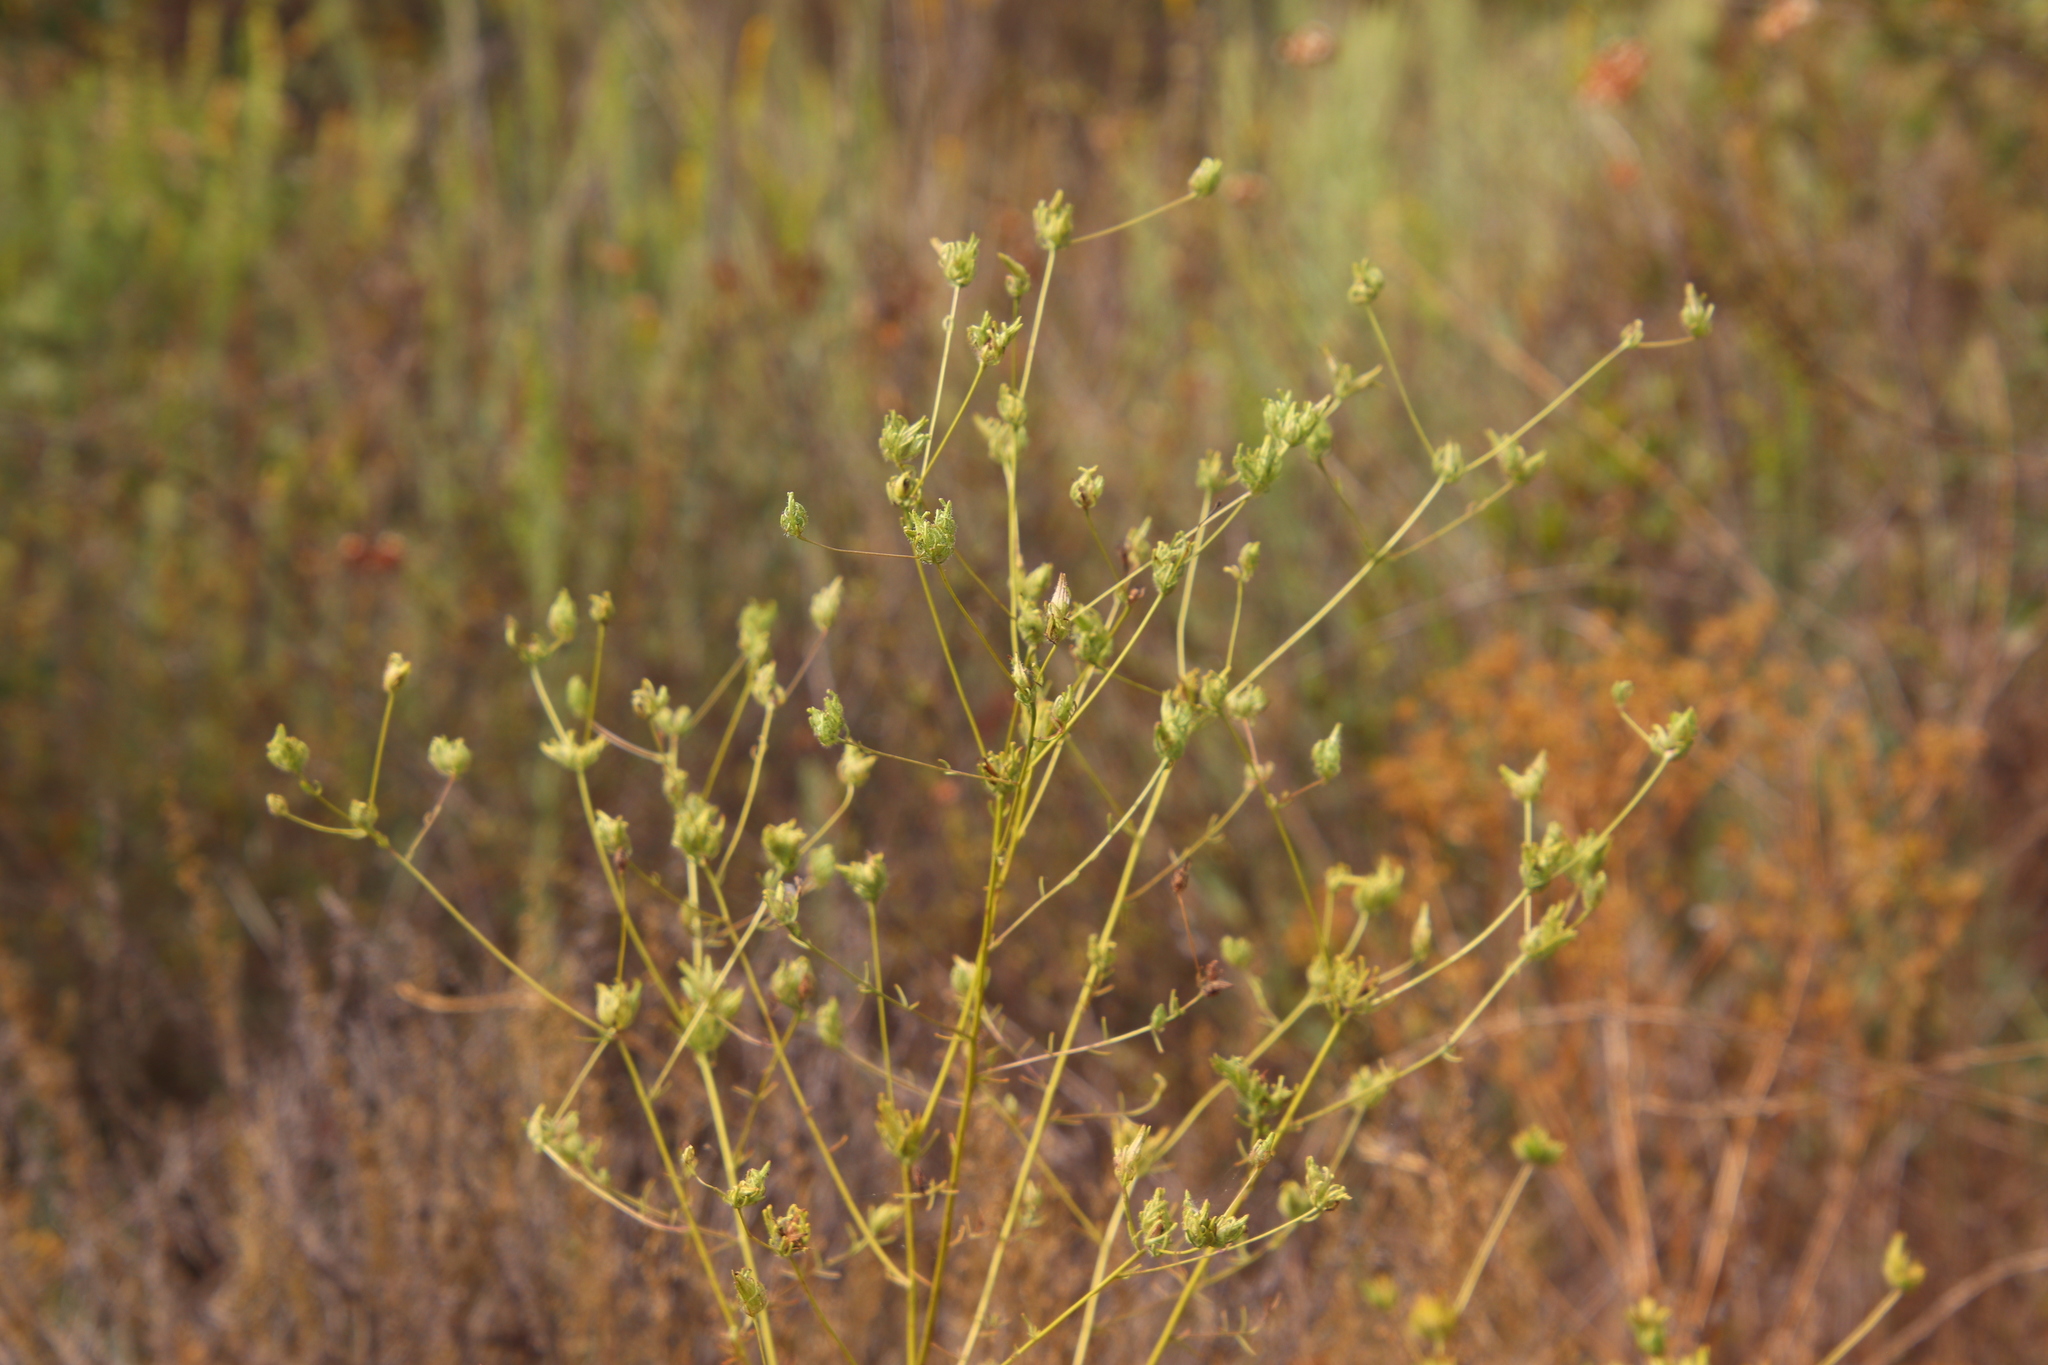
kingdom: Plantae
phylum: Tracheophyta
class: Magnoliopsida
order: Lamiales
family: Orobanchaceae
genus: Cordylanthus
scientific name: Cordylanthus rigidus
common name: Stiff-branch bird's-beak
